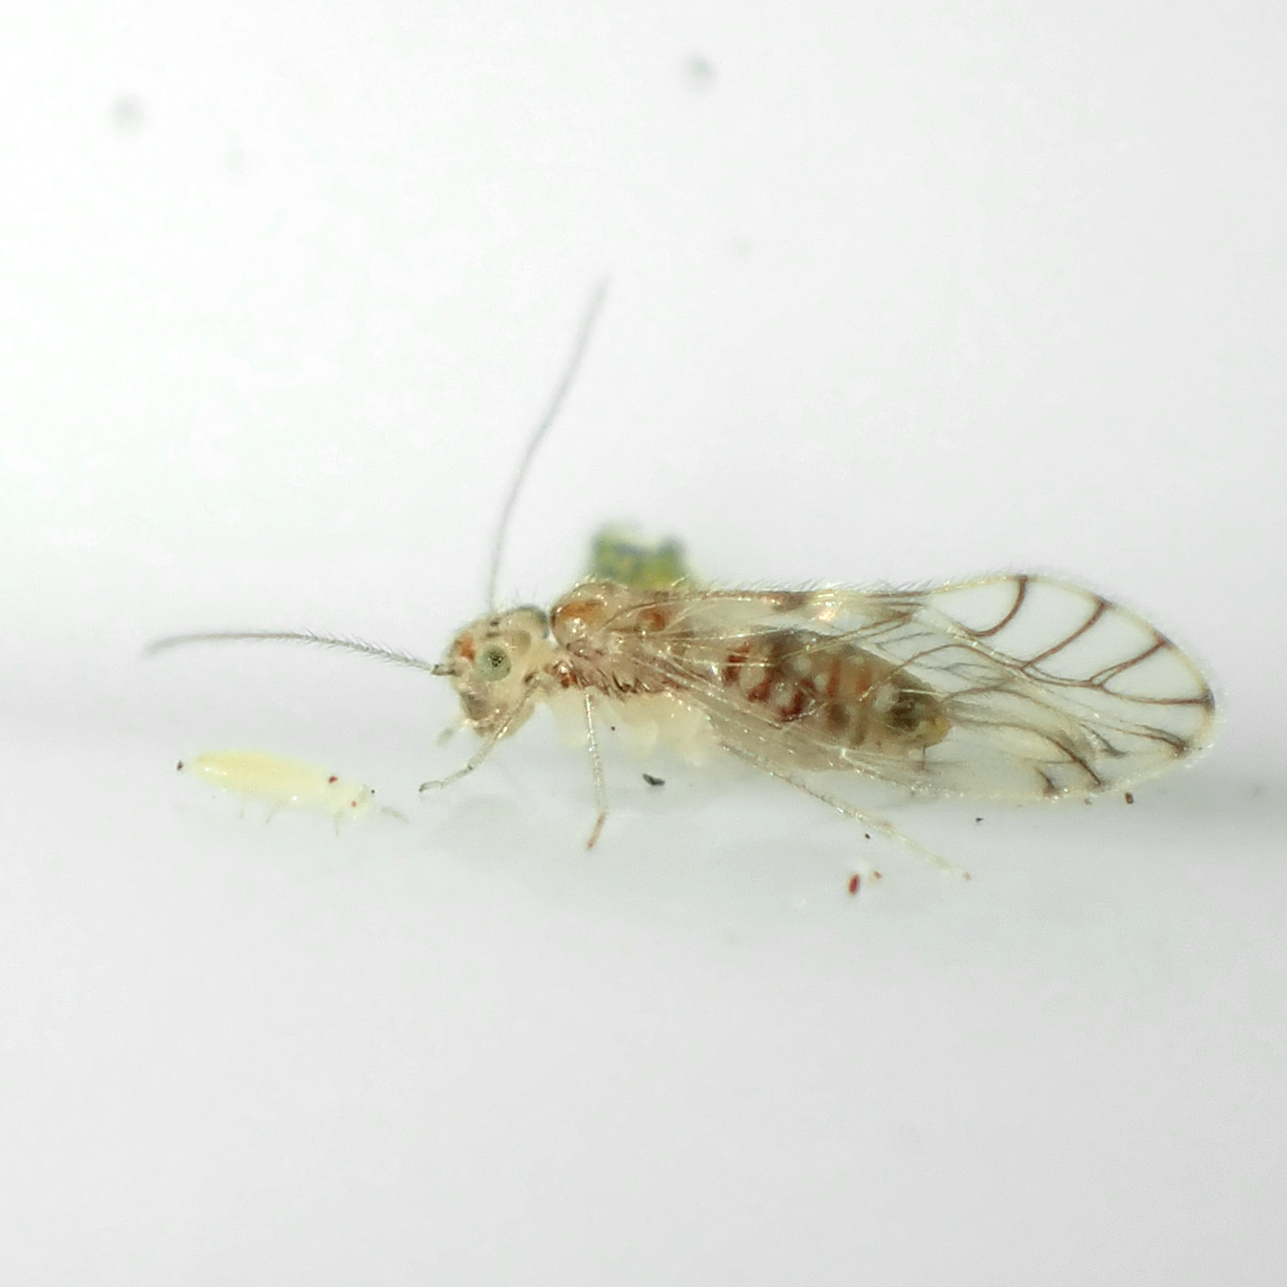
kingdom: Animalia
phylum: Arthropoda
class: Insecta
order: Psocodea
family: Pseudocaeciliidae
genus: Lobocaecilius
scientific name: Lobocaecilius monicus
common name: Barklice
